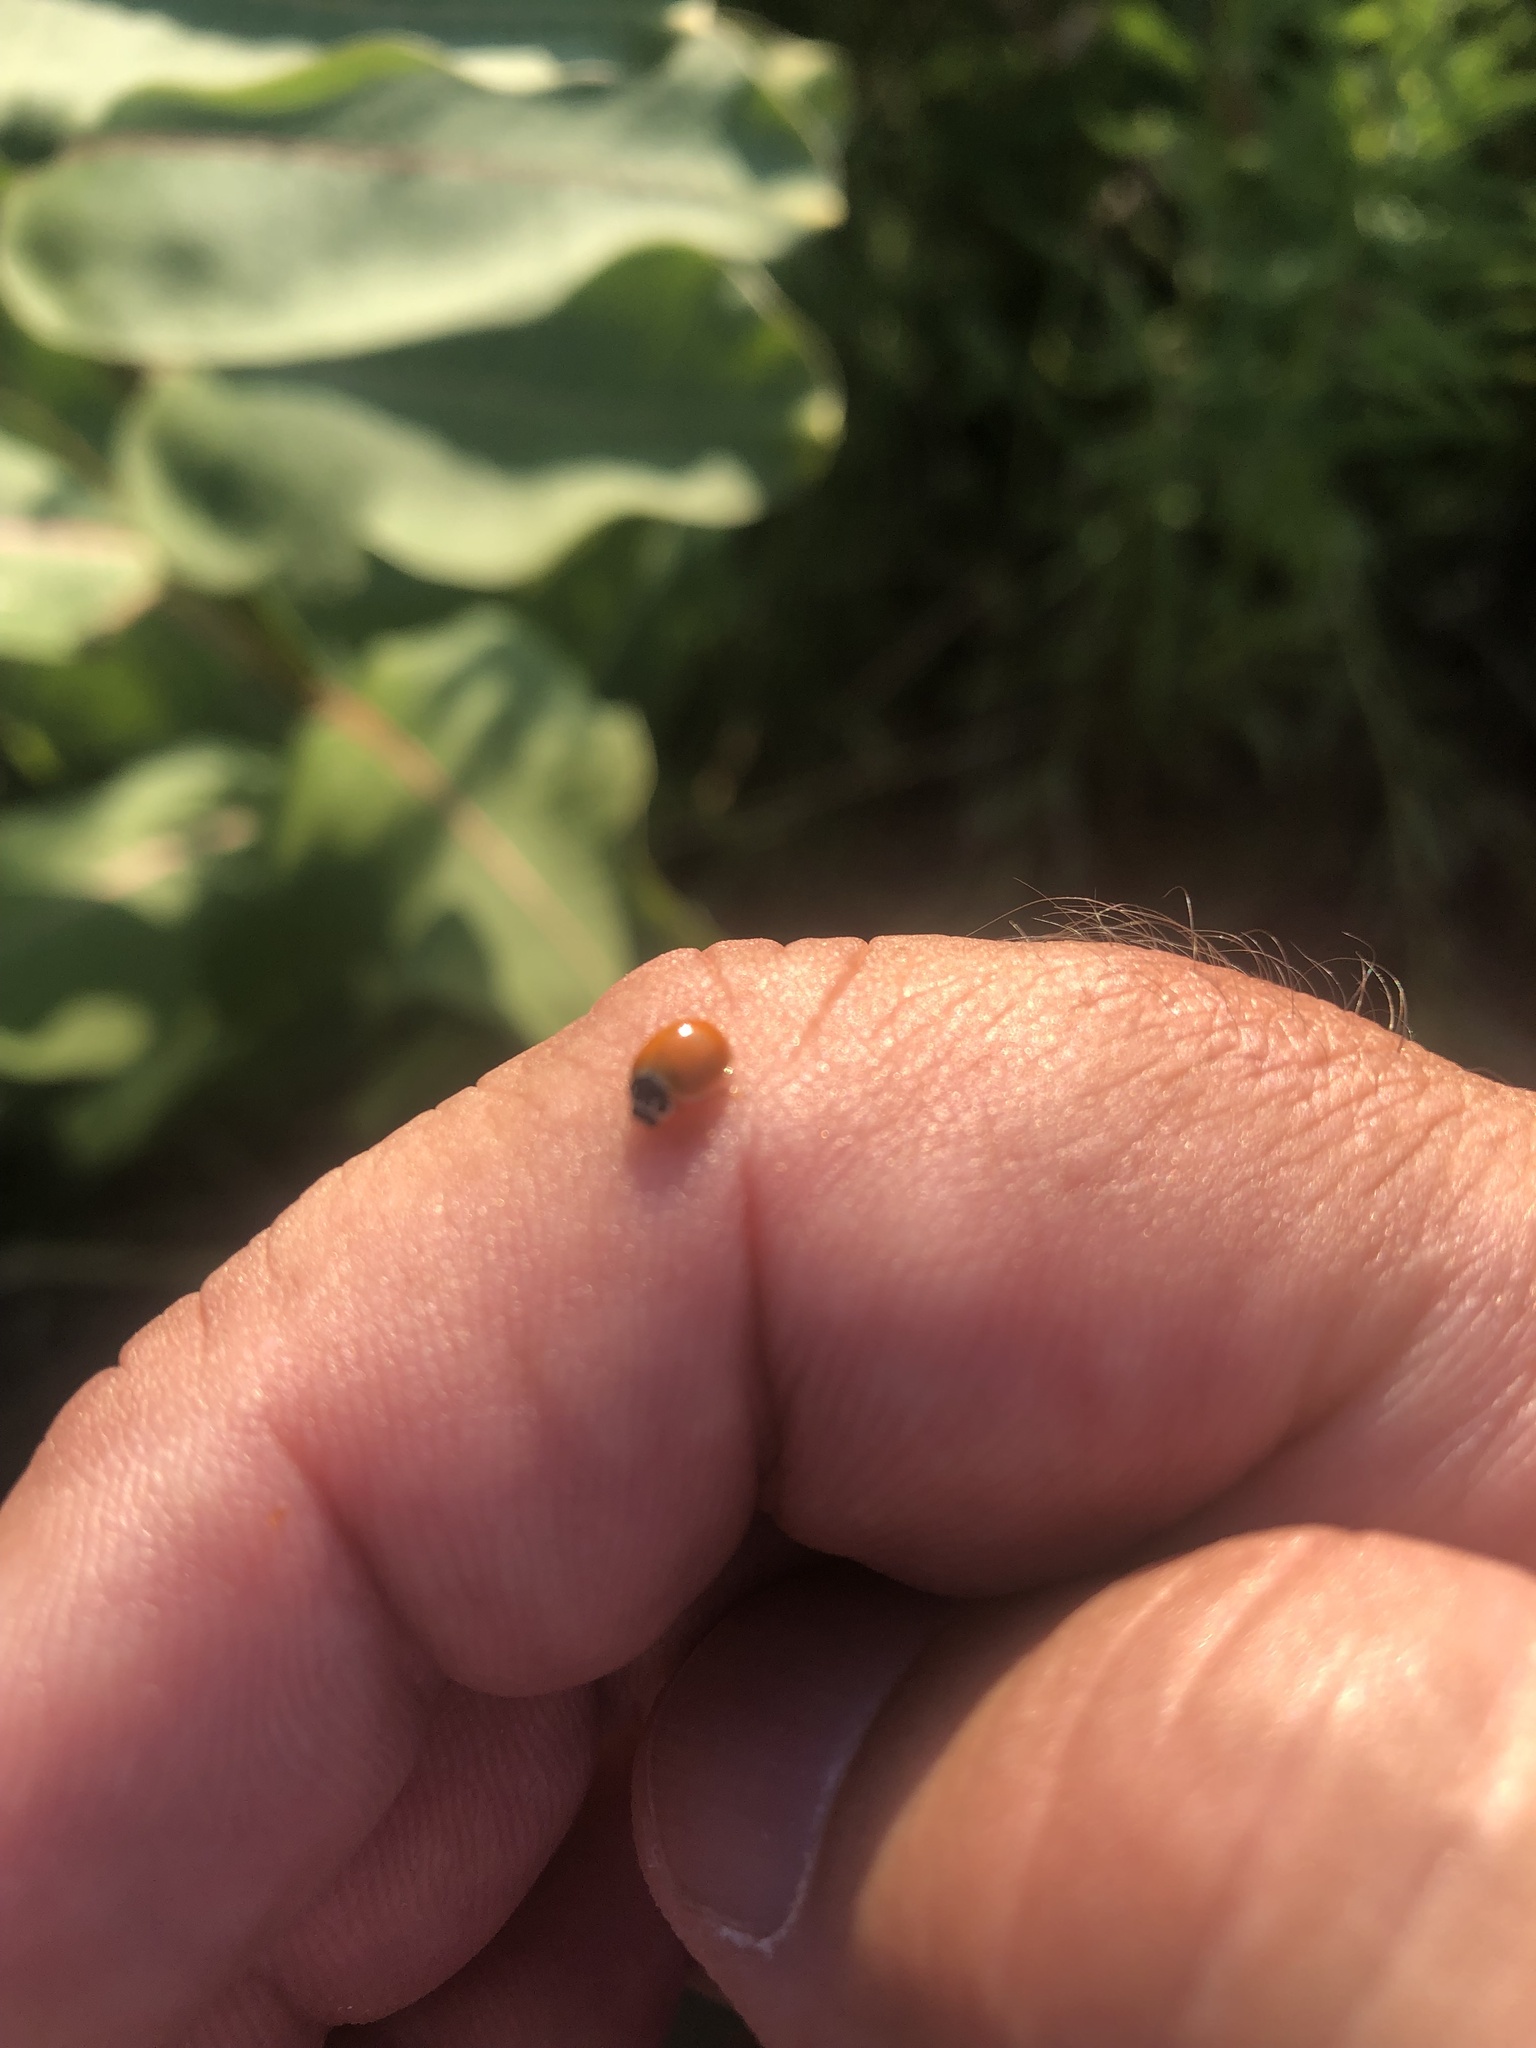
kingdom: Animalia
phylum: Arthropoda
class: Insecta
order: Coleoptera
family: Coccinellidae
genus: Cycloneda
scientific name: Cycloneda munda
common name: Polished lady beetle
